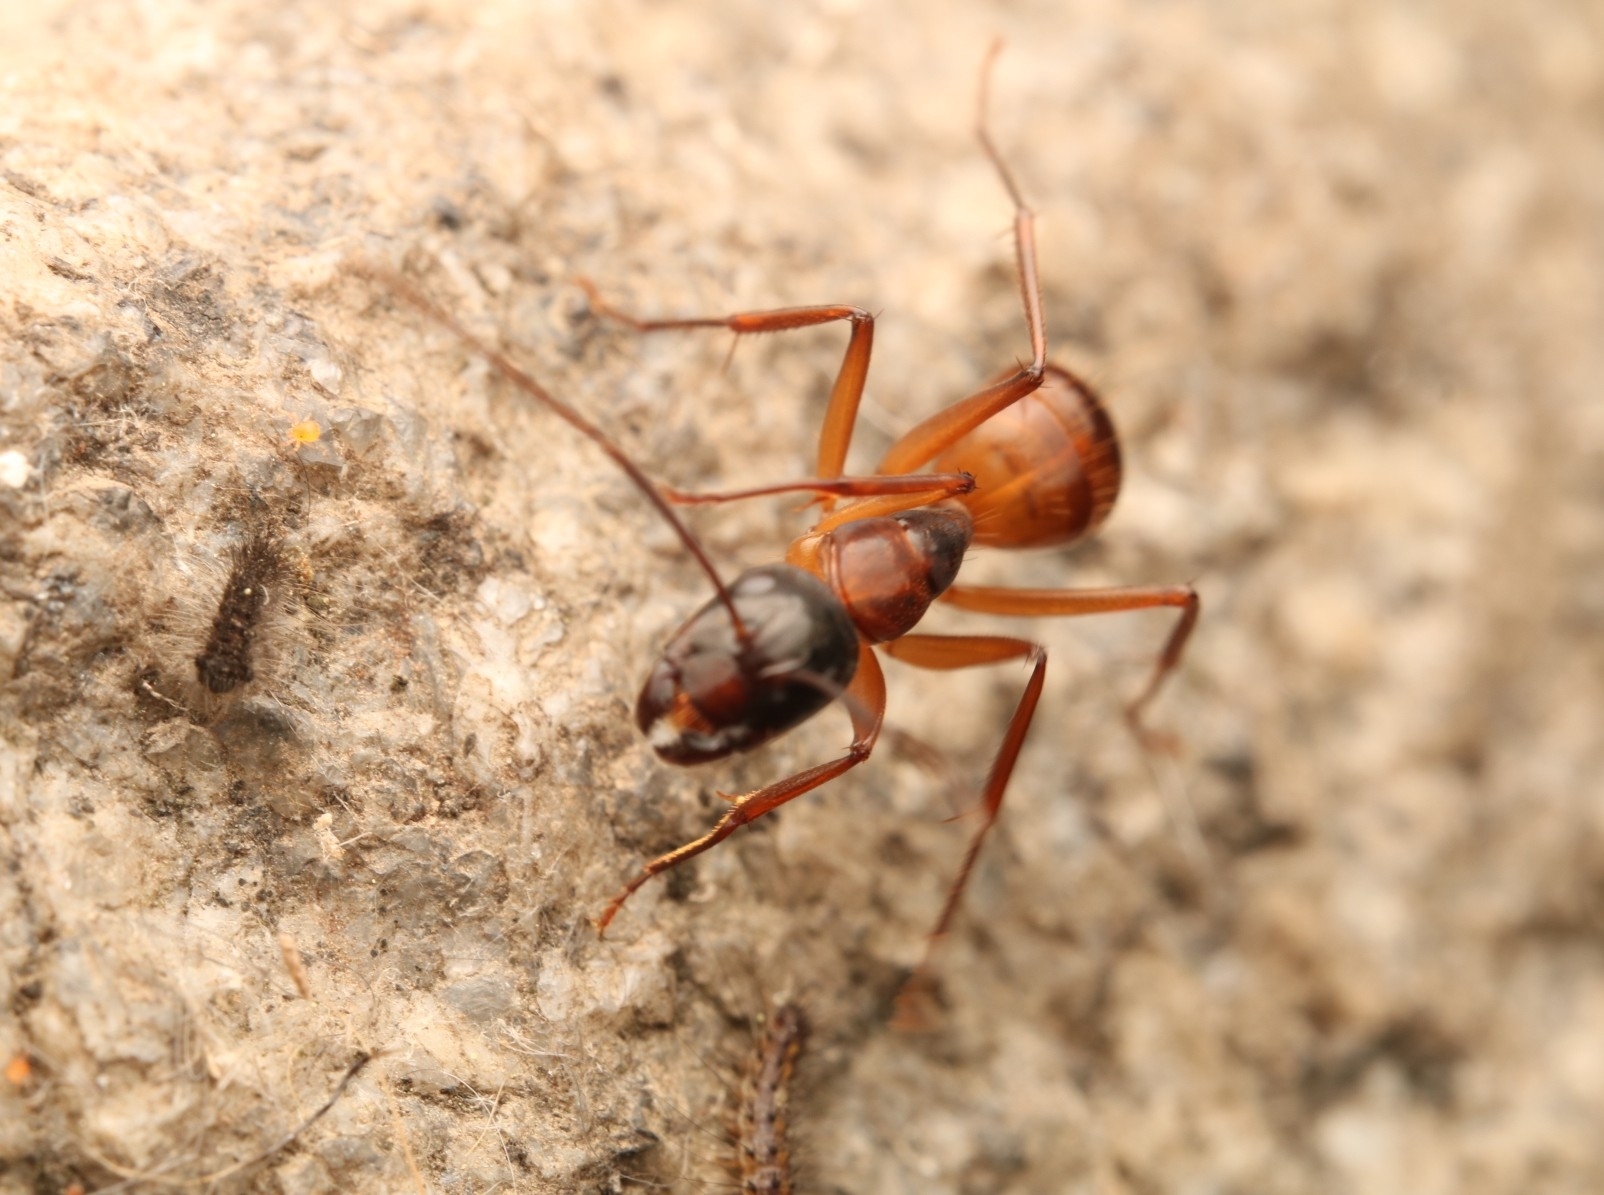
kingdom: Animalia
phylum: Arthropoda
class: Insecta
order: Hymenoptera
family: Formicidae
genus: Camponotus
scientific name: Camponotus americanus
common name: American carpenter ant
